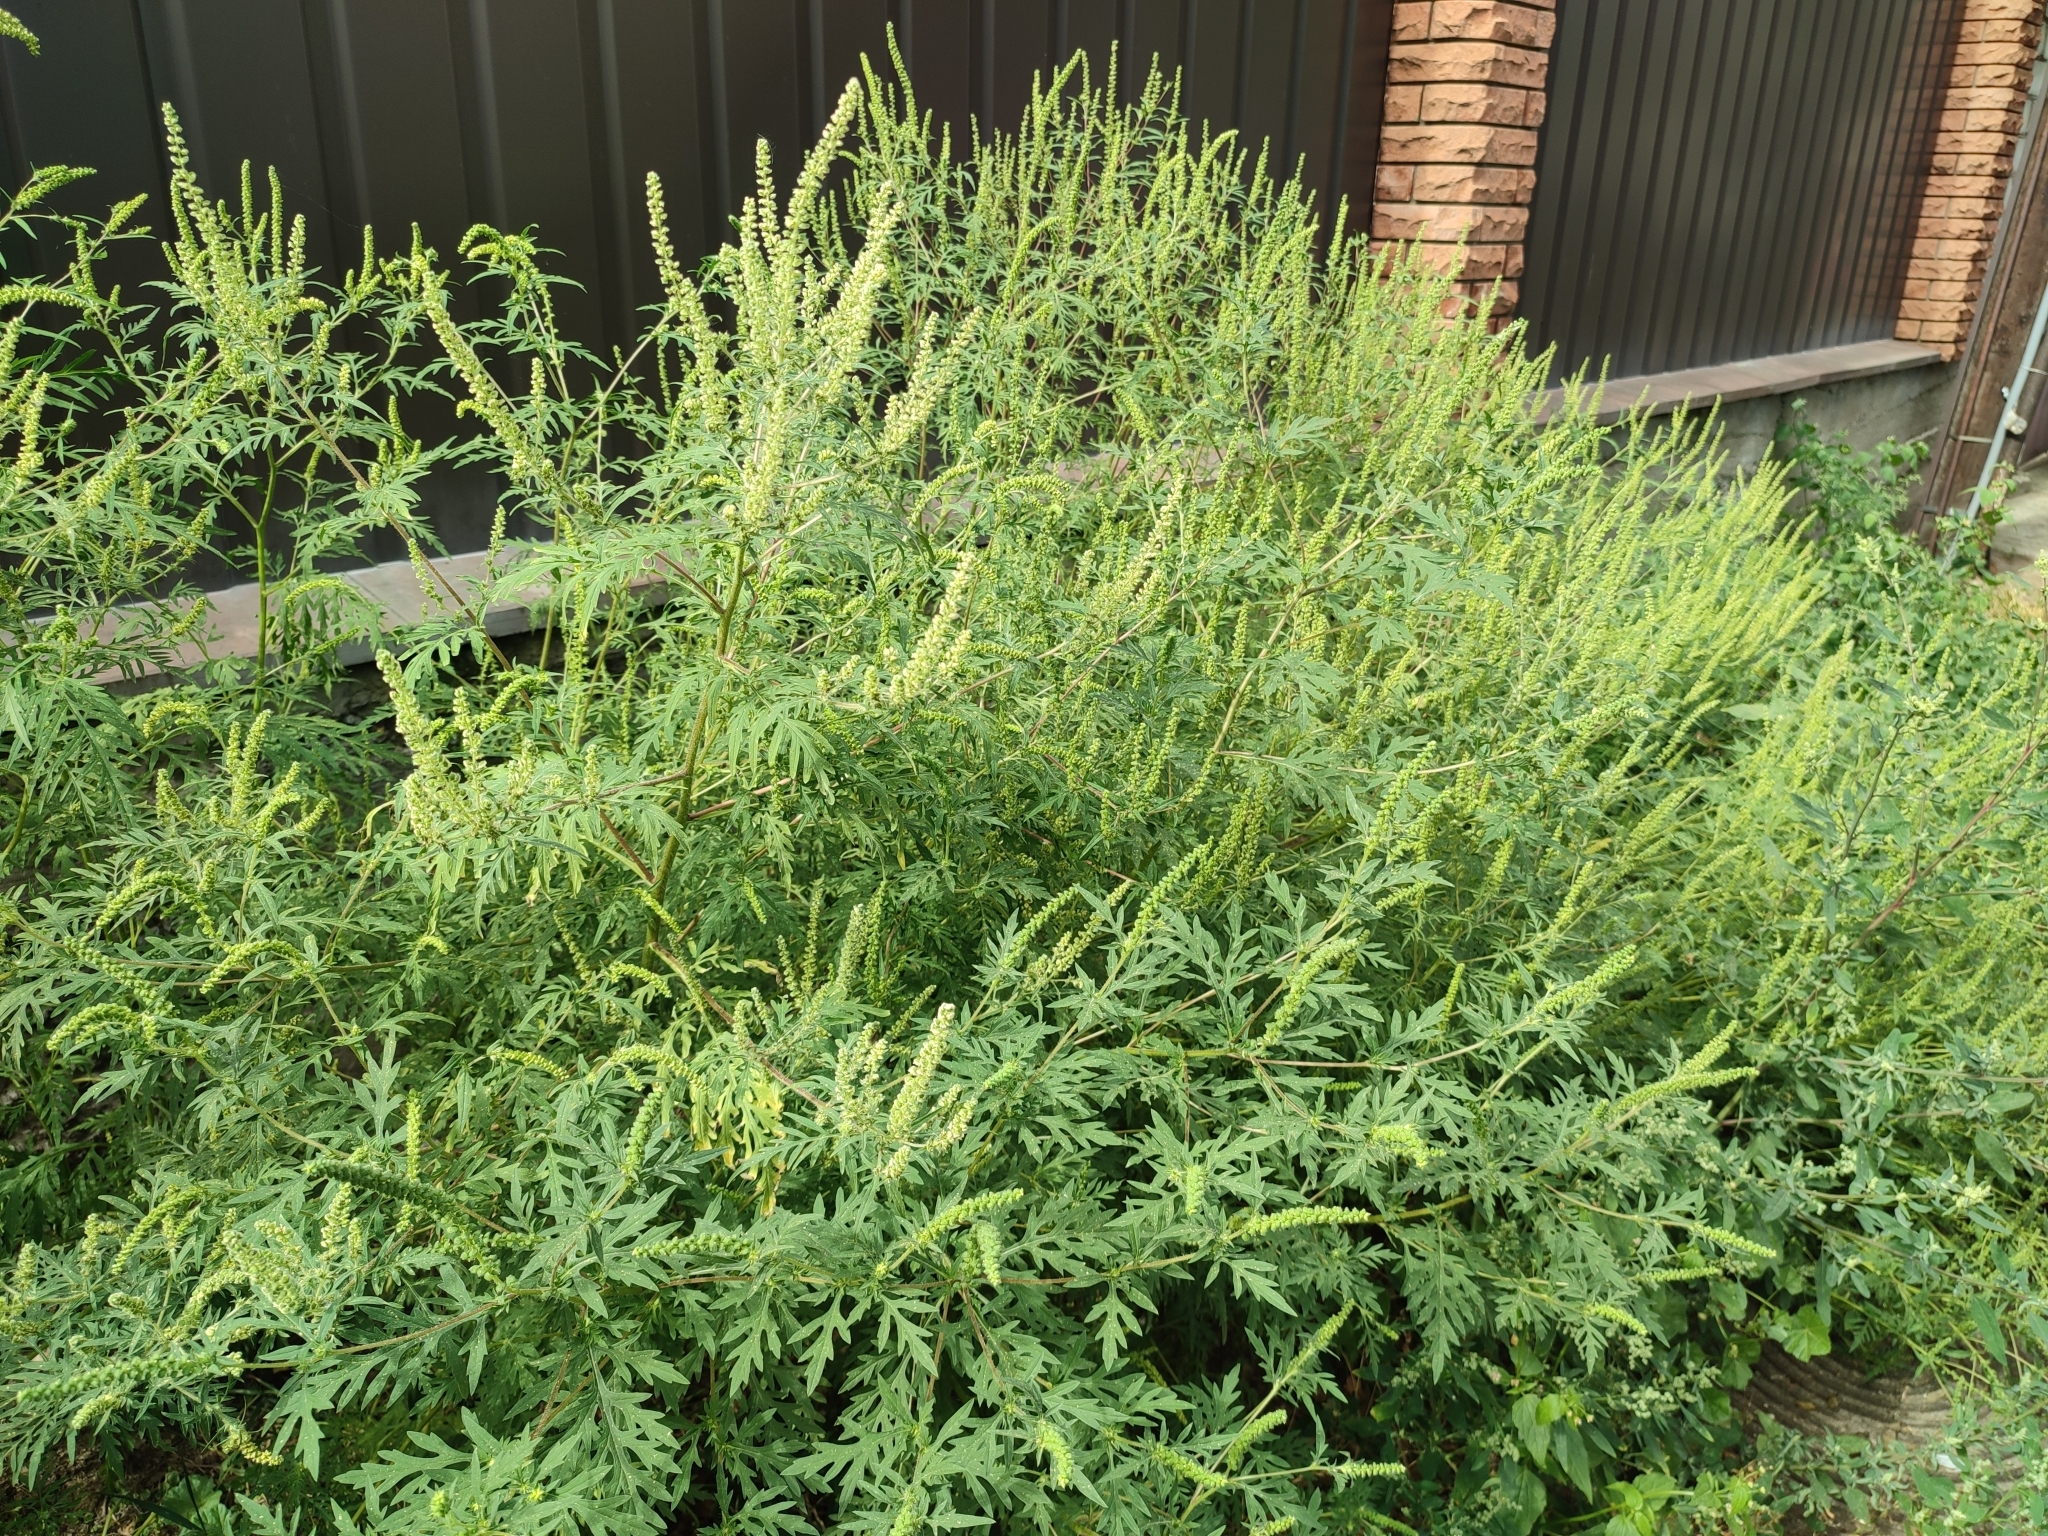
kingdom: Plantae
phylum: Tracheophyta
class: Magnoliopsida
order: Asterales
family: Asteraceae
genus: Ambrosia
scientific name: Ambrosia artemisiifolia
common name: Annual ragweed
